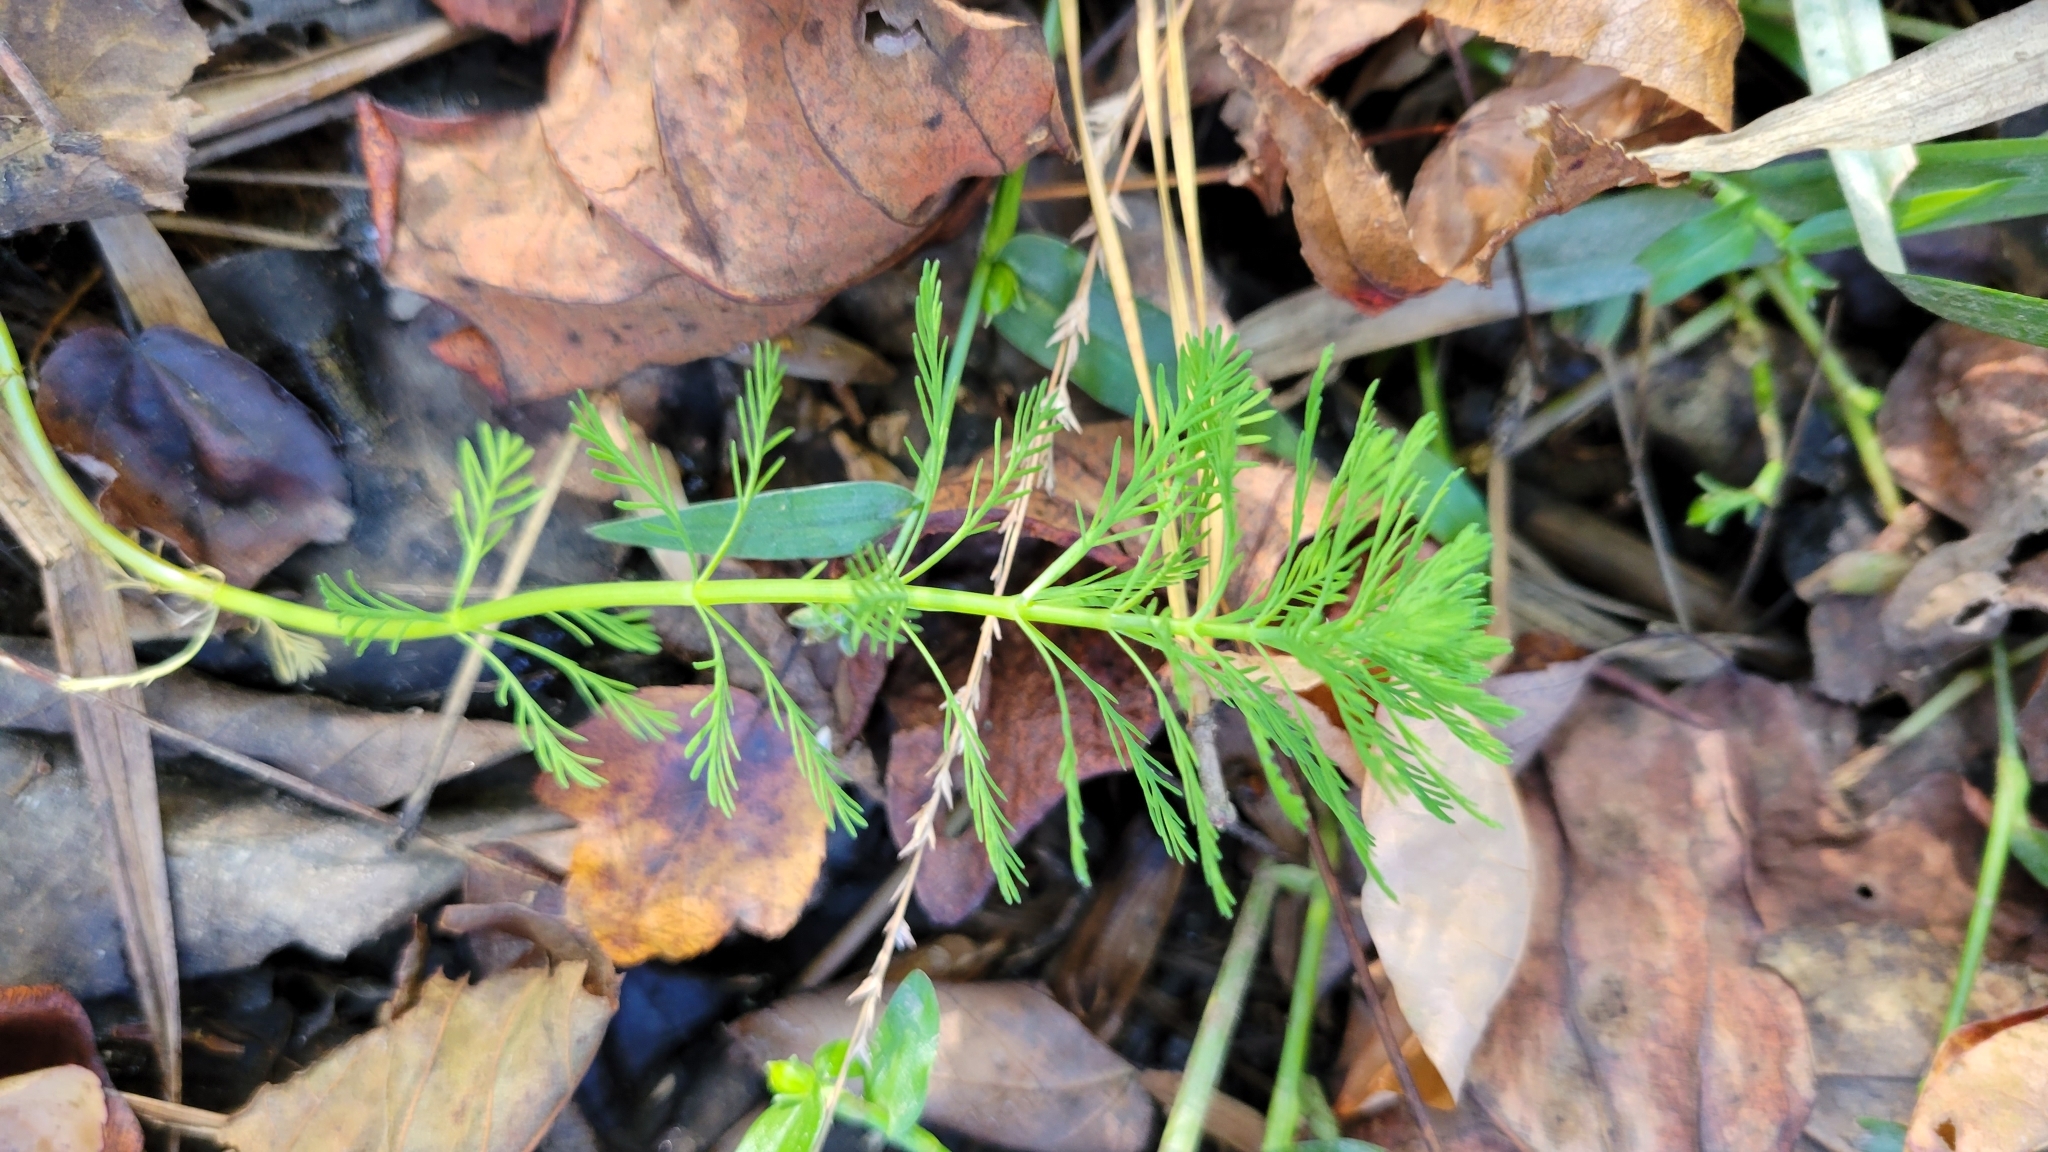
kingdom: Plantae
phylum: Tracheophyta
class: Magnoliopsida
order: Saxifragales
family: Haloragaceae
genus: Myriophyllum
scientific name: Myriophyllum aquaticum
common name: Parrot's feather
